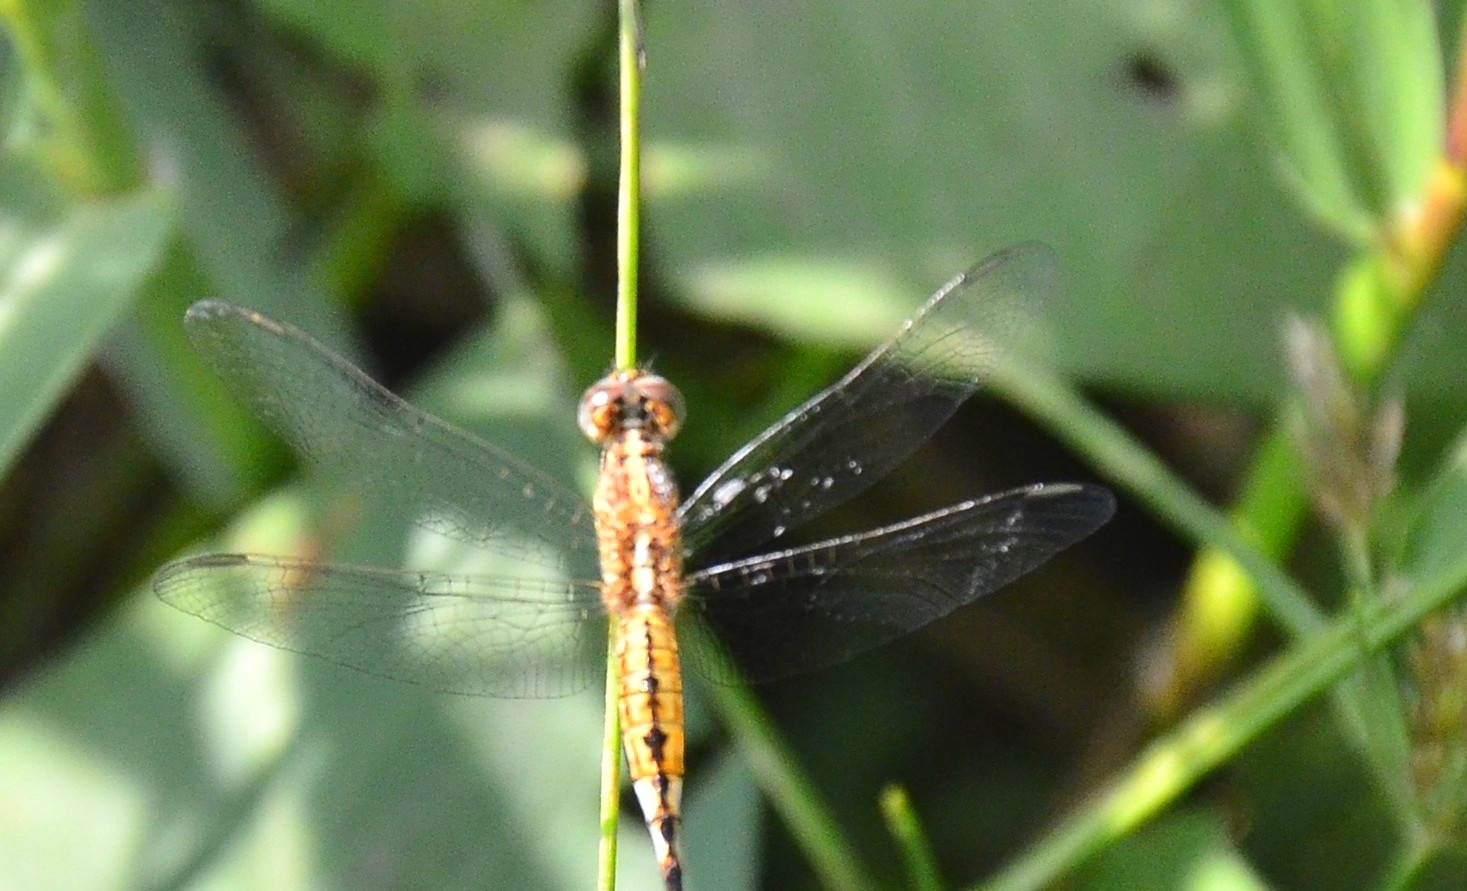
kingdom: Animalia
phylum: Arthropoda
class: Insecta
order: Odonata
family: Libellulidae
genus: Acisoma
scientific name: Acisoma panorpoides
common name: Asian pintail
